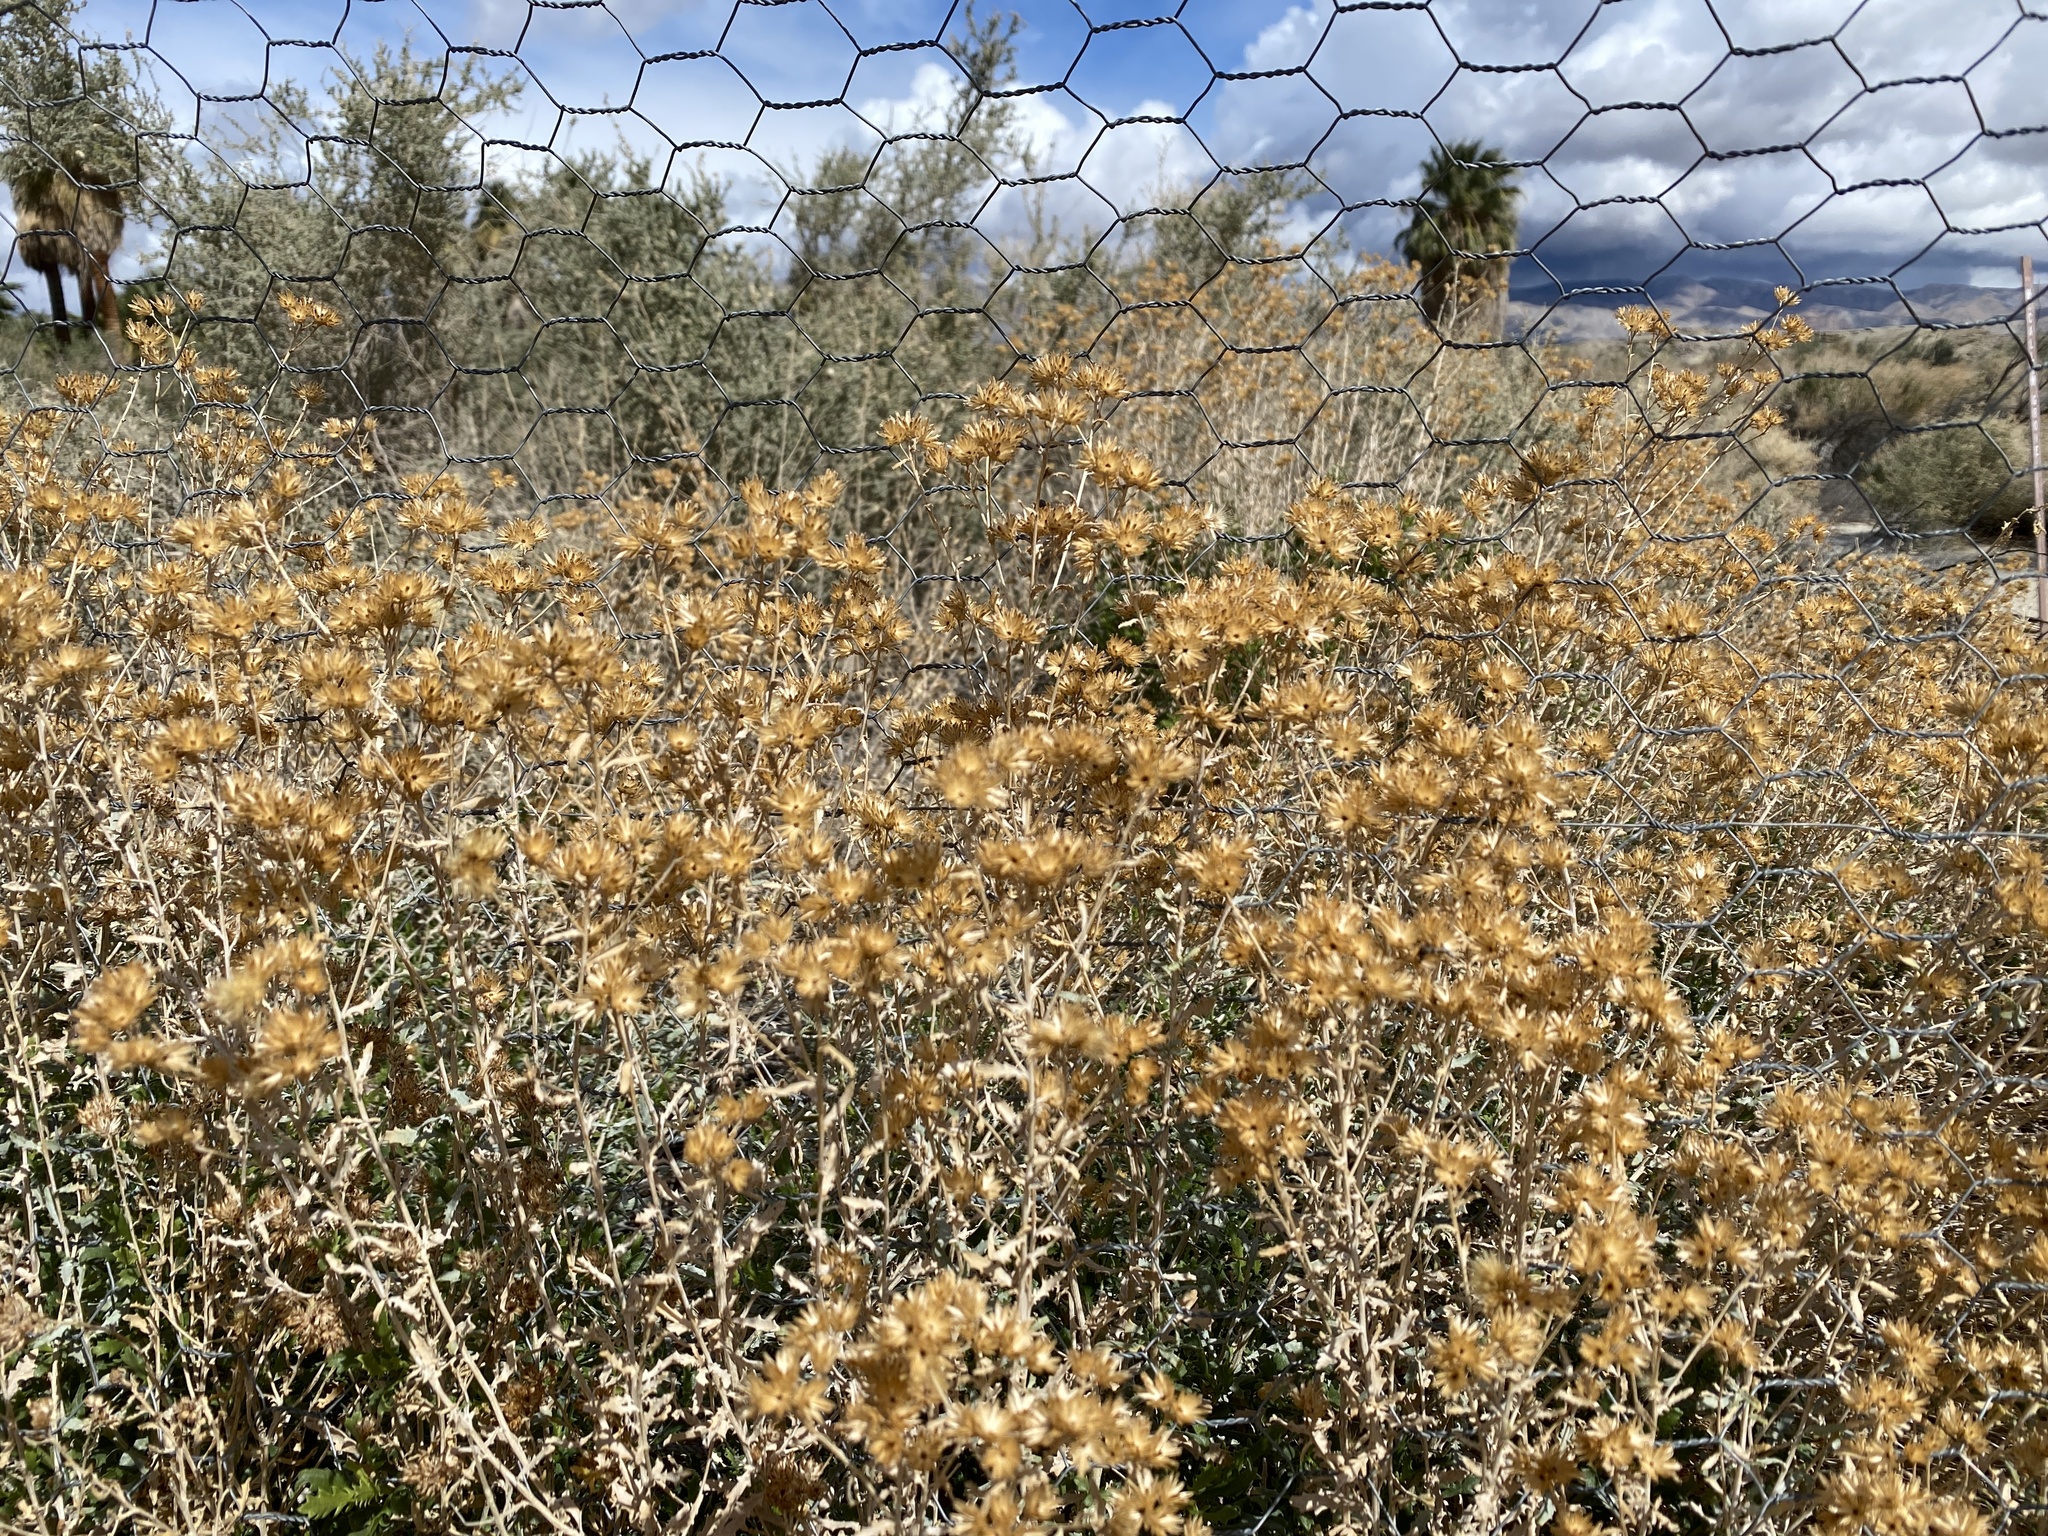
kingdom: Plantae
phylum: Tracheophyta
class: Magnoliopsida
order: Asterales
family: Asteraceae
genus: Isocoma
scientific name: Isocoma acradenia
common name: Alkali jimmyweed
